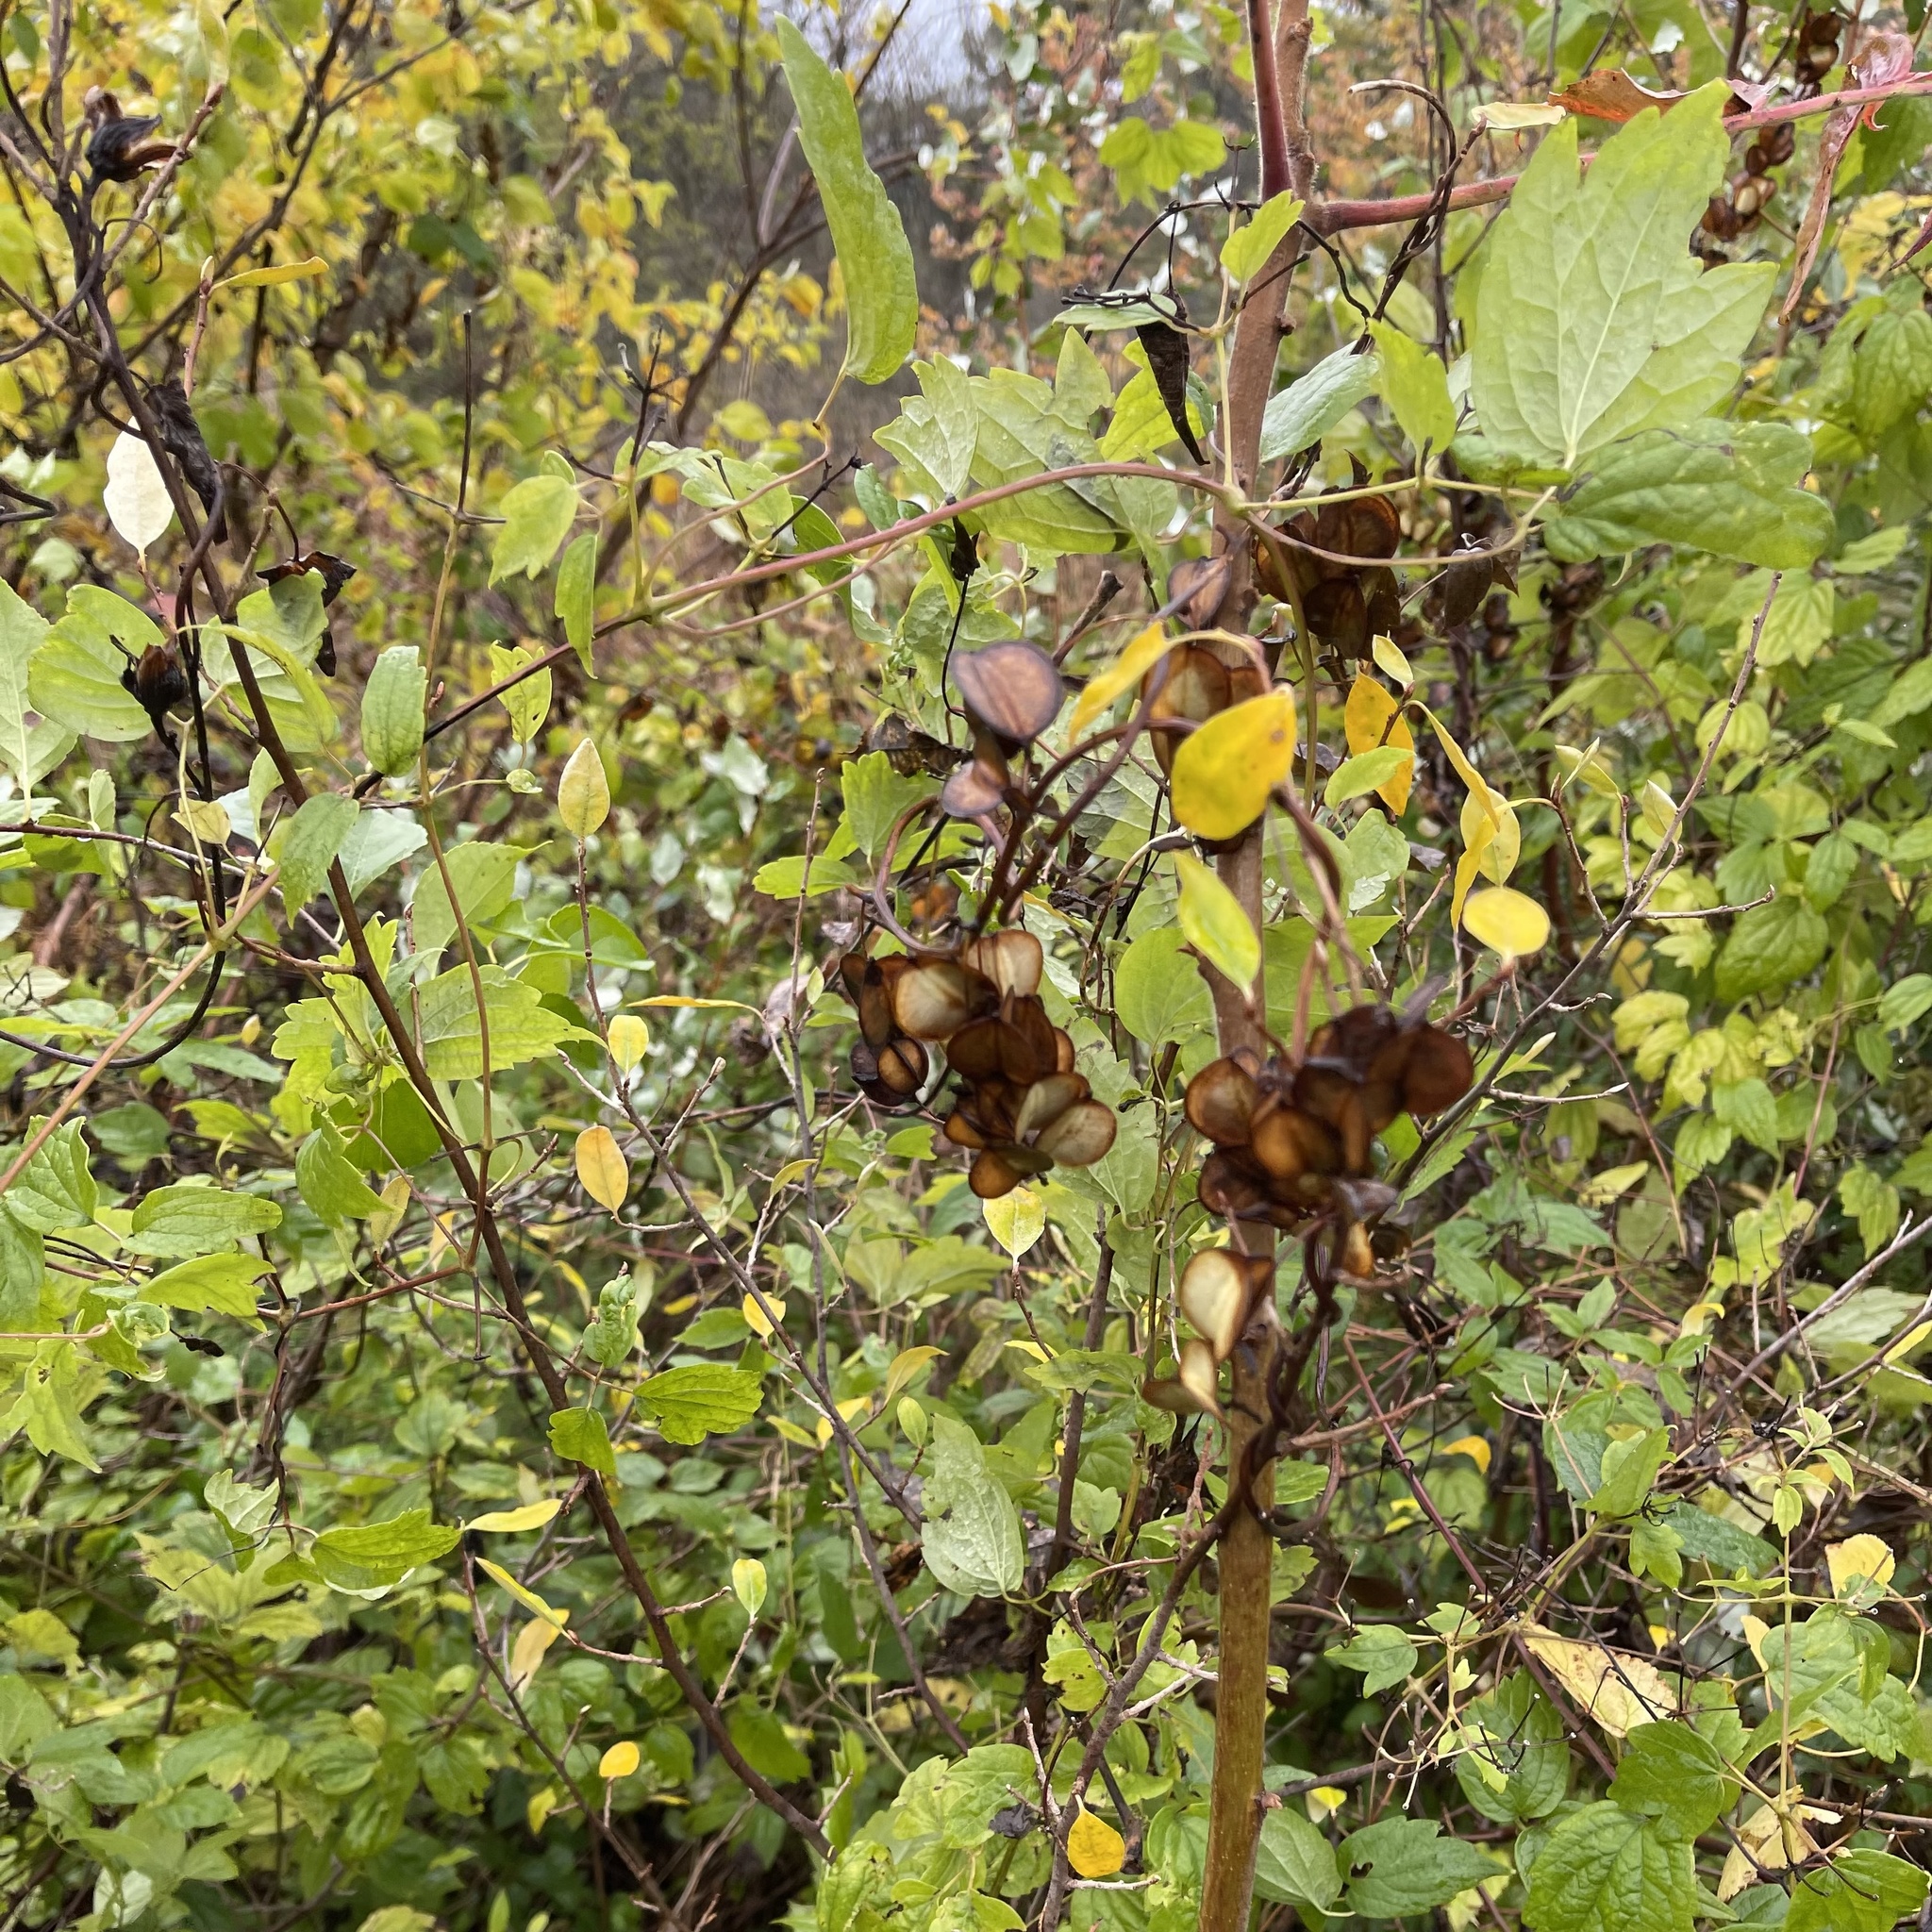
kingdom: Plantae
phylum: Tracheophyta
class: Liliopsida
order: Dioscoreales
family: Dioscoreaceae
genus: Dioscorea
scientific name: Dioscorea villosa
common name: Wild yam
